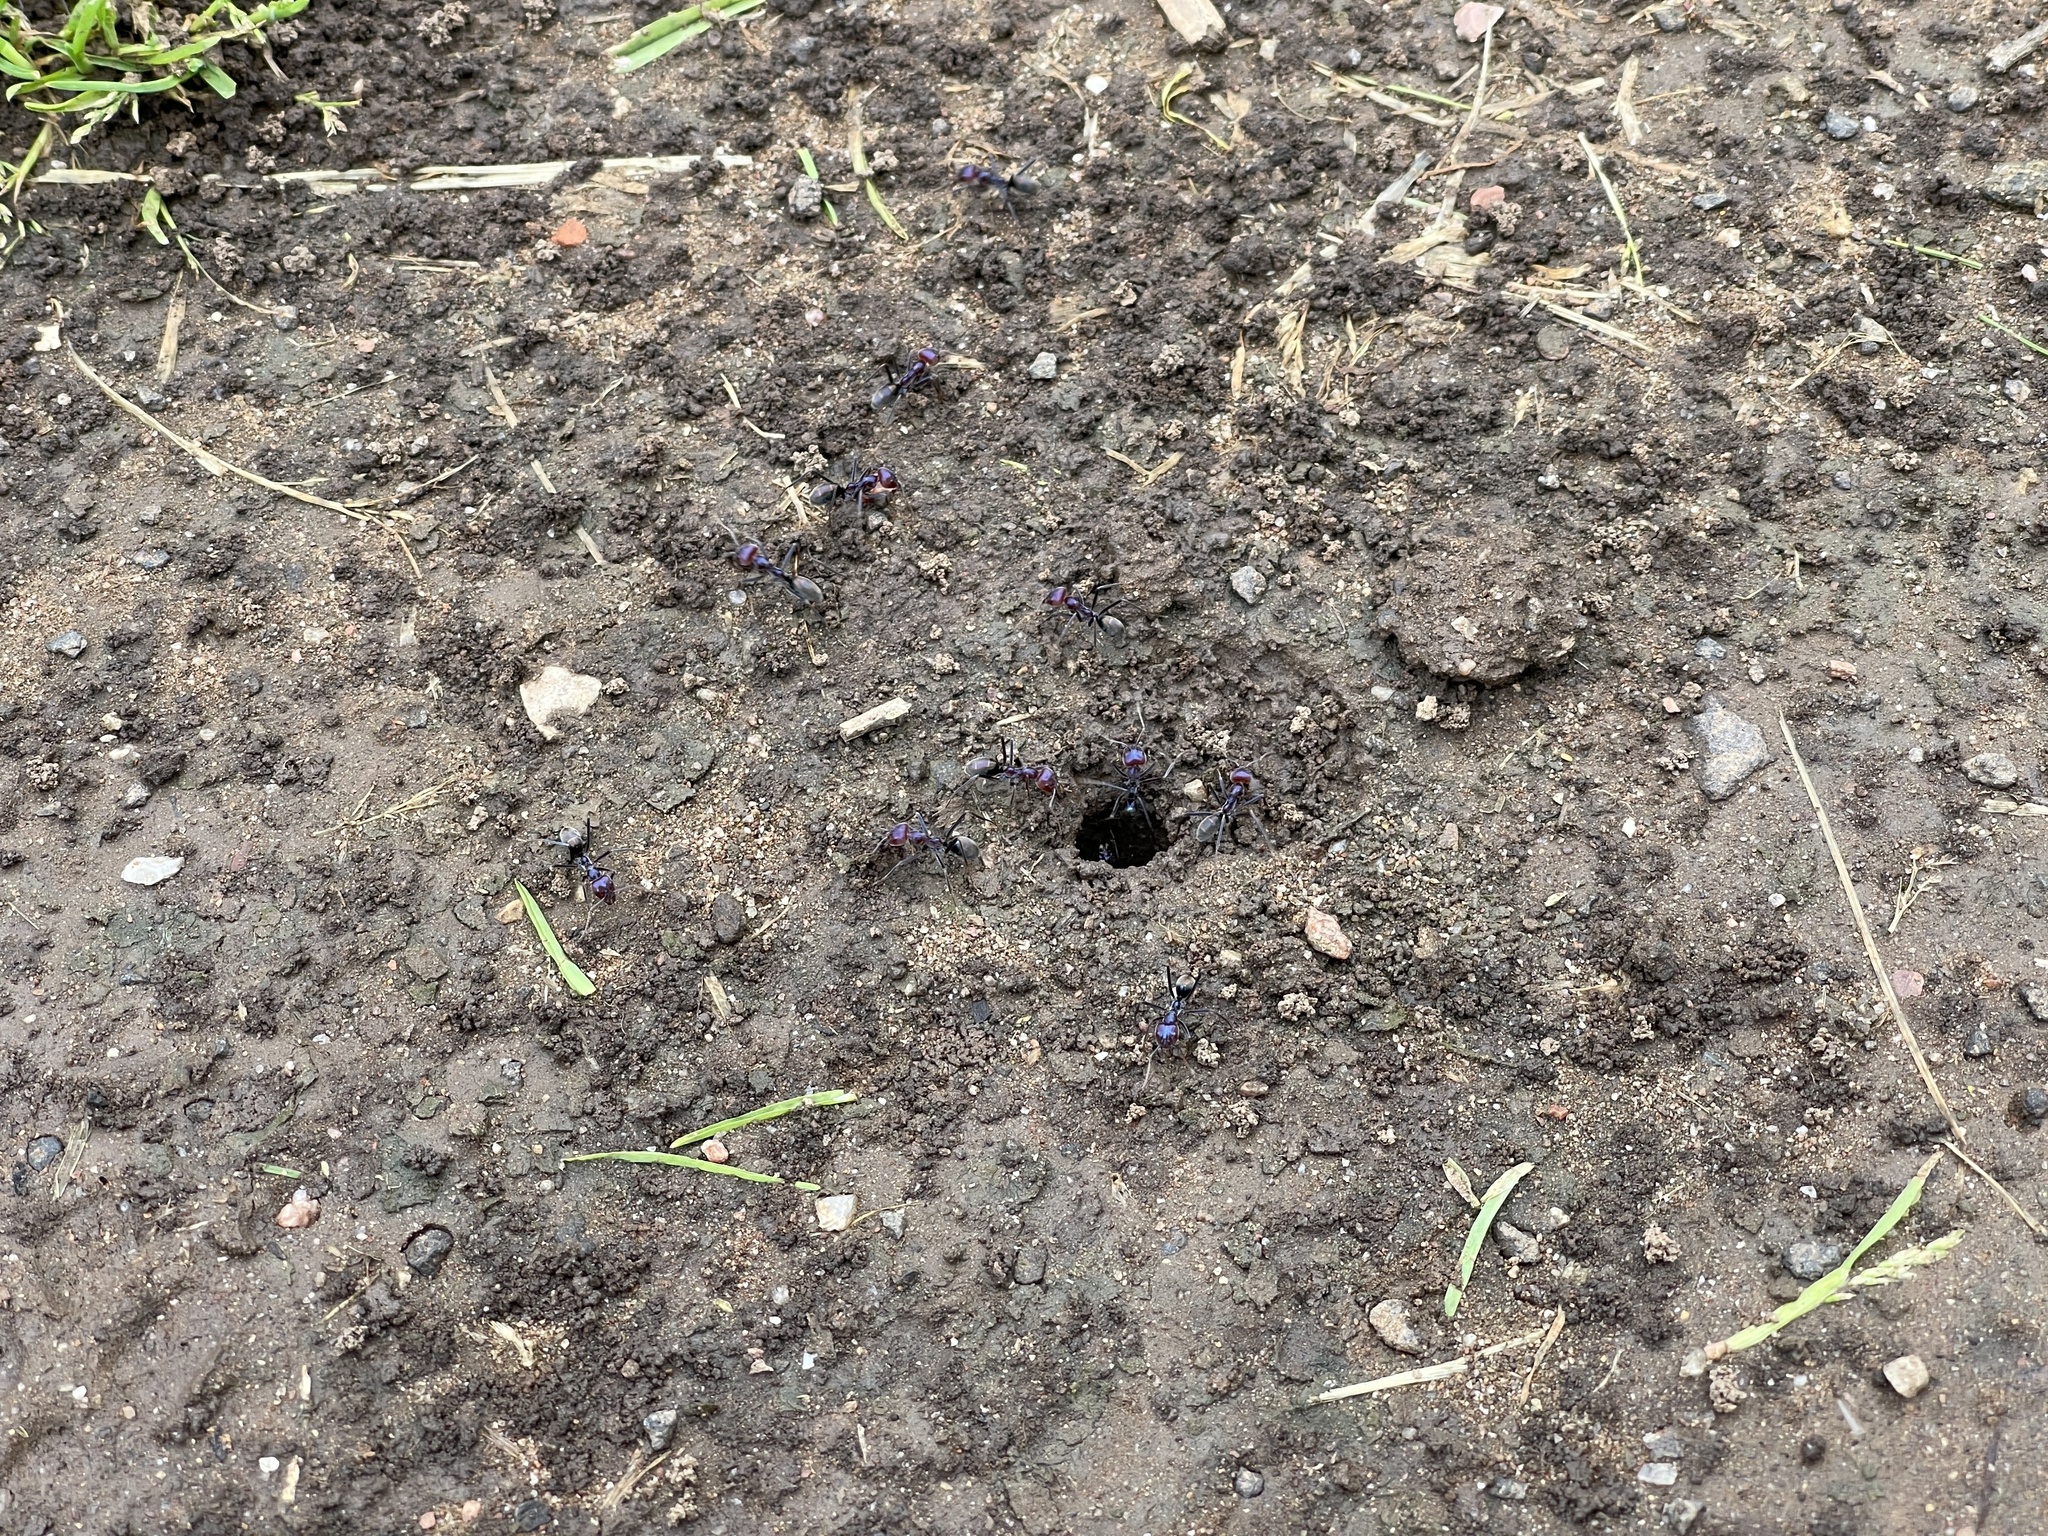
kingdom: Animalia
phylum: Arthropoda
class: Insecta
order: Hymenoptera
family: Formicidae
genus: Iridomyrmex
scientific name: Iridomyrmex purpureus
